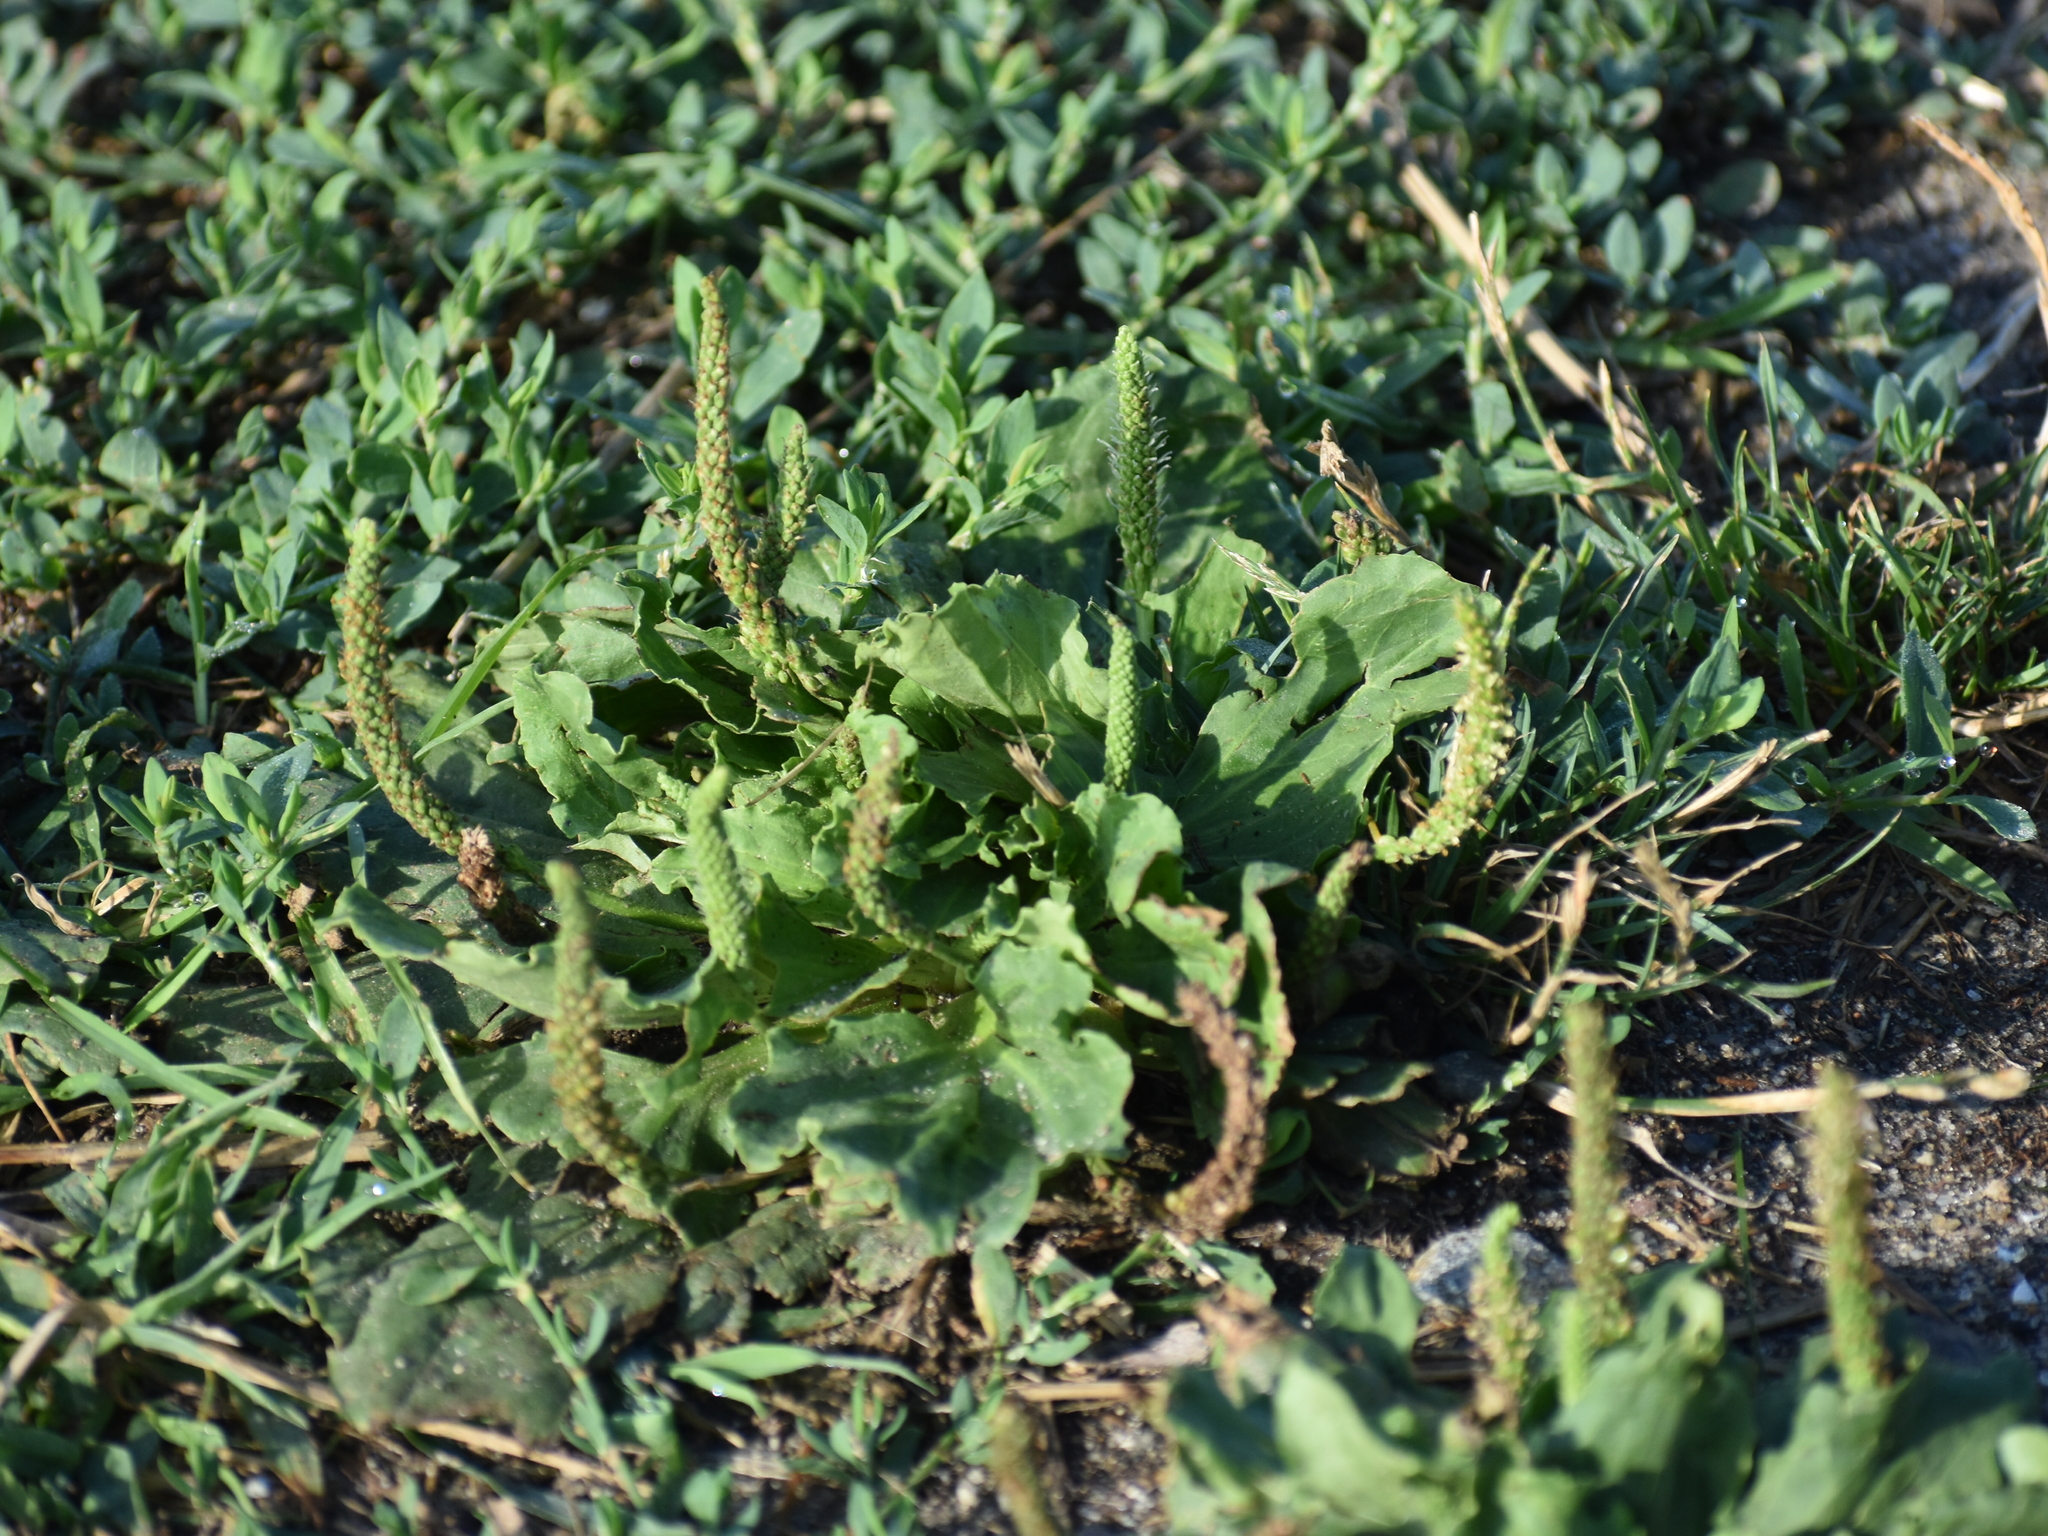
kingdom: Plantae
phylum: Tracheophyta
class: Magnoliopsida
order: Lamiales
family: Plantaginaceae
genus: Plantago
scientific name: Plantago major
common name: Common plantain
